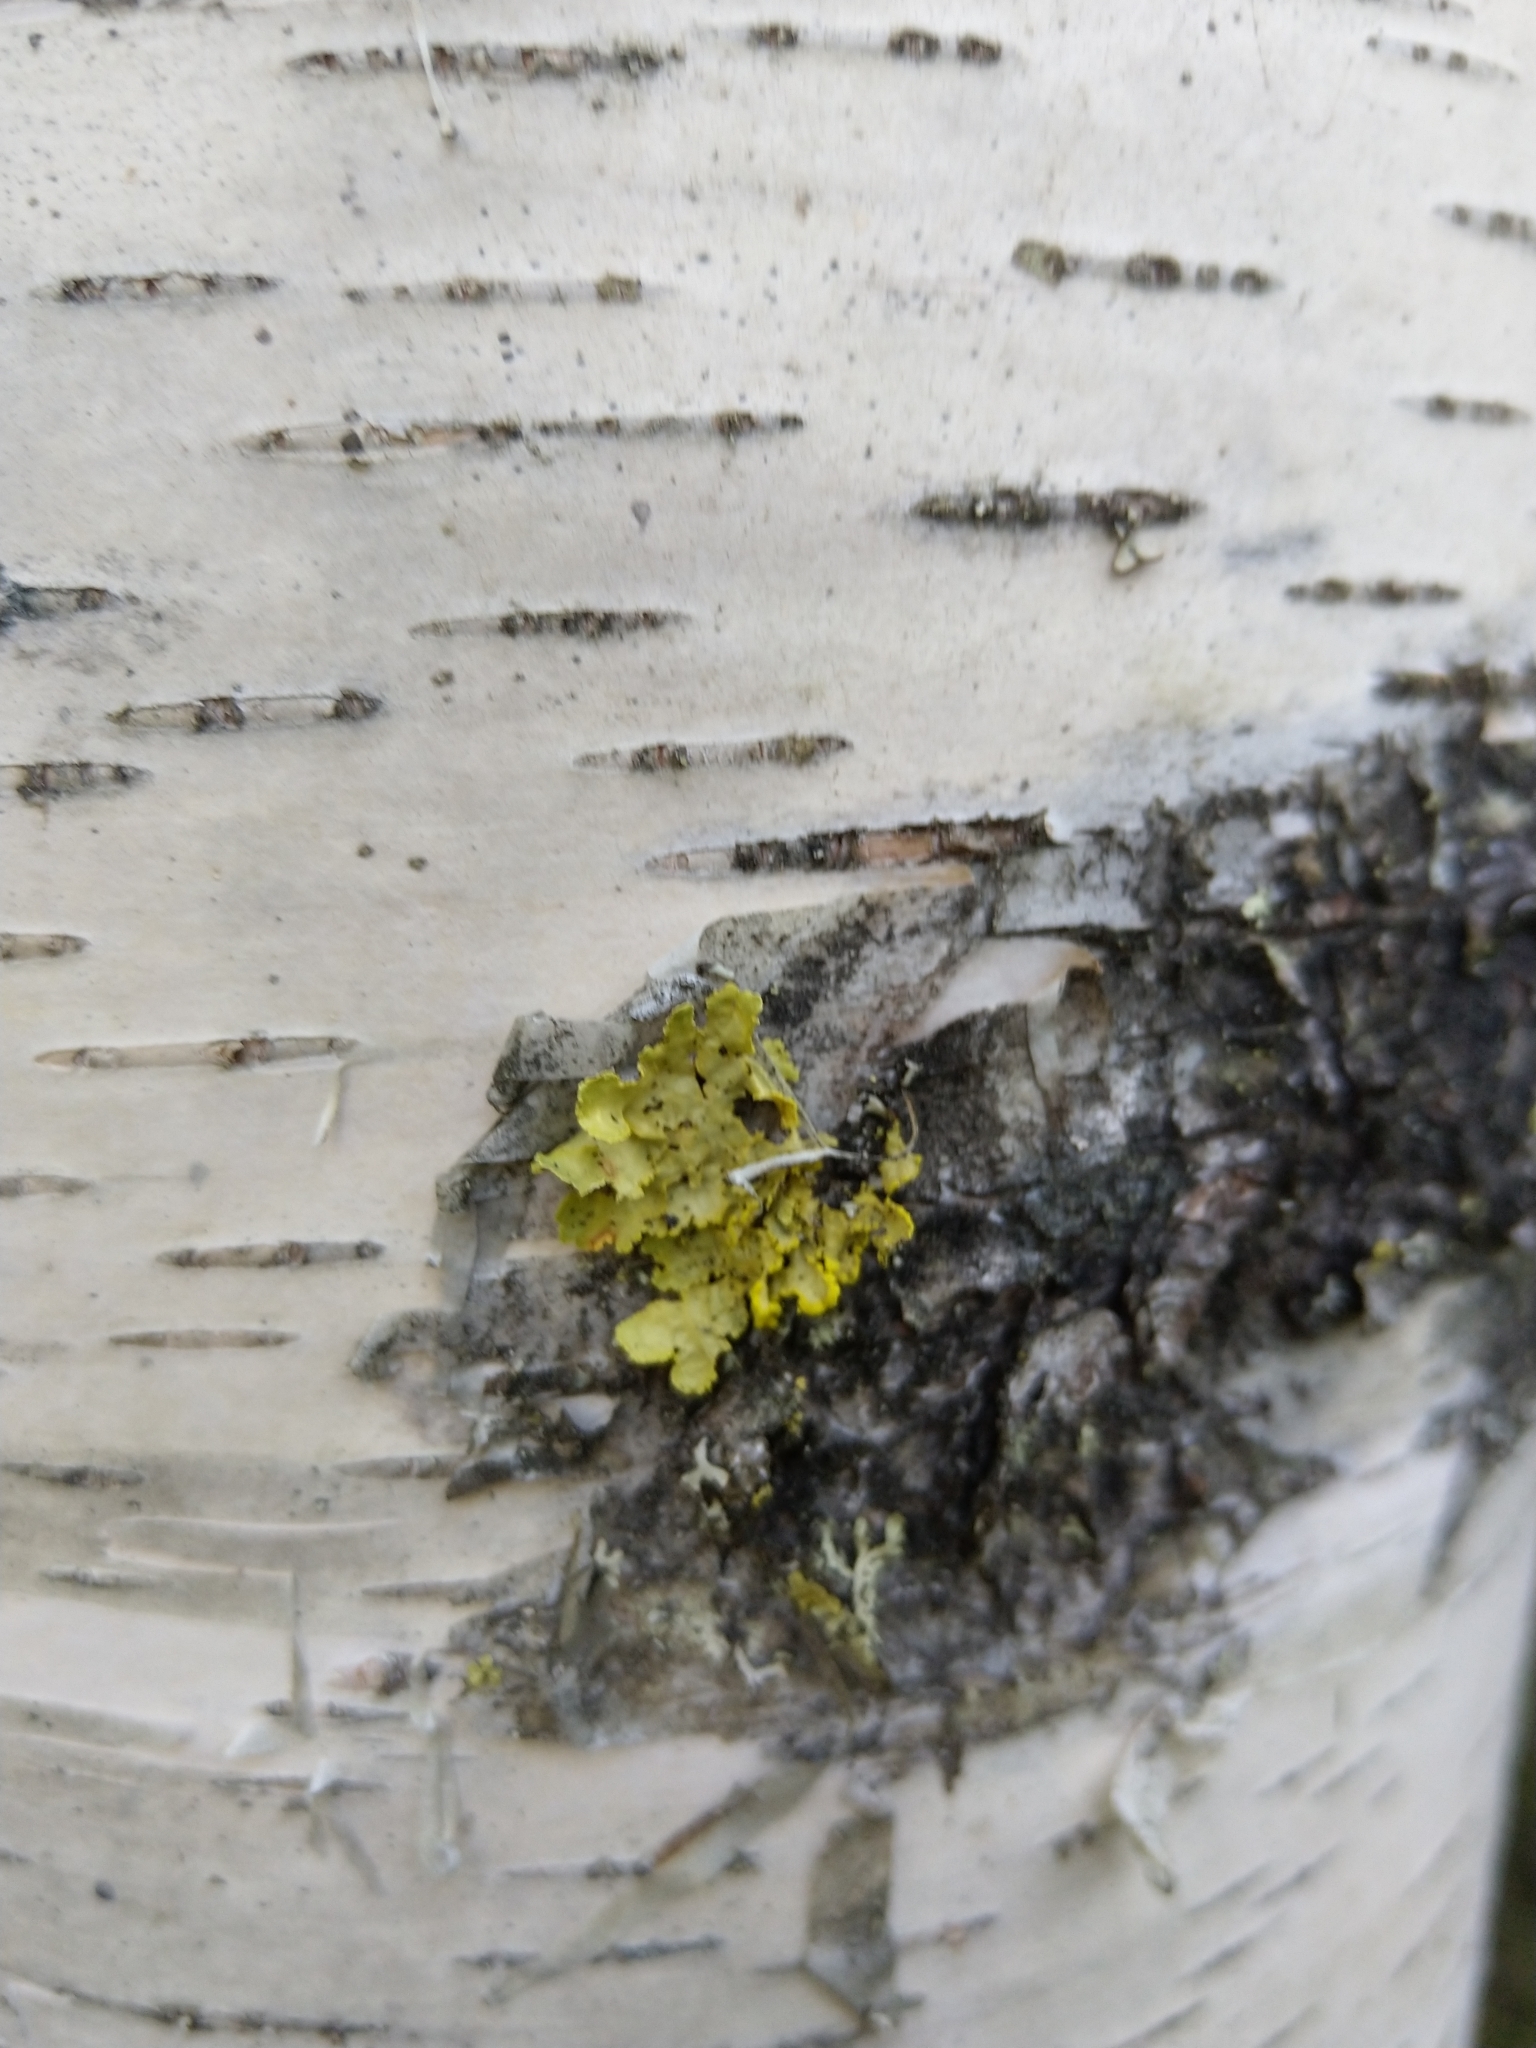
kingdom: Fungi
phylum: Ascomycota
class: Lecanoromycetes
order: Lecanorales
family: Parmeliaceae
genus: Vulpicida
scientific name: Vulpicida pinastri
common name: Powdered sunshine lichen
